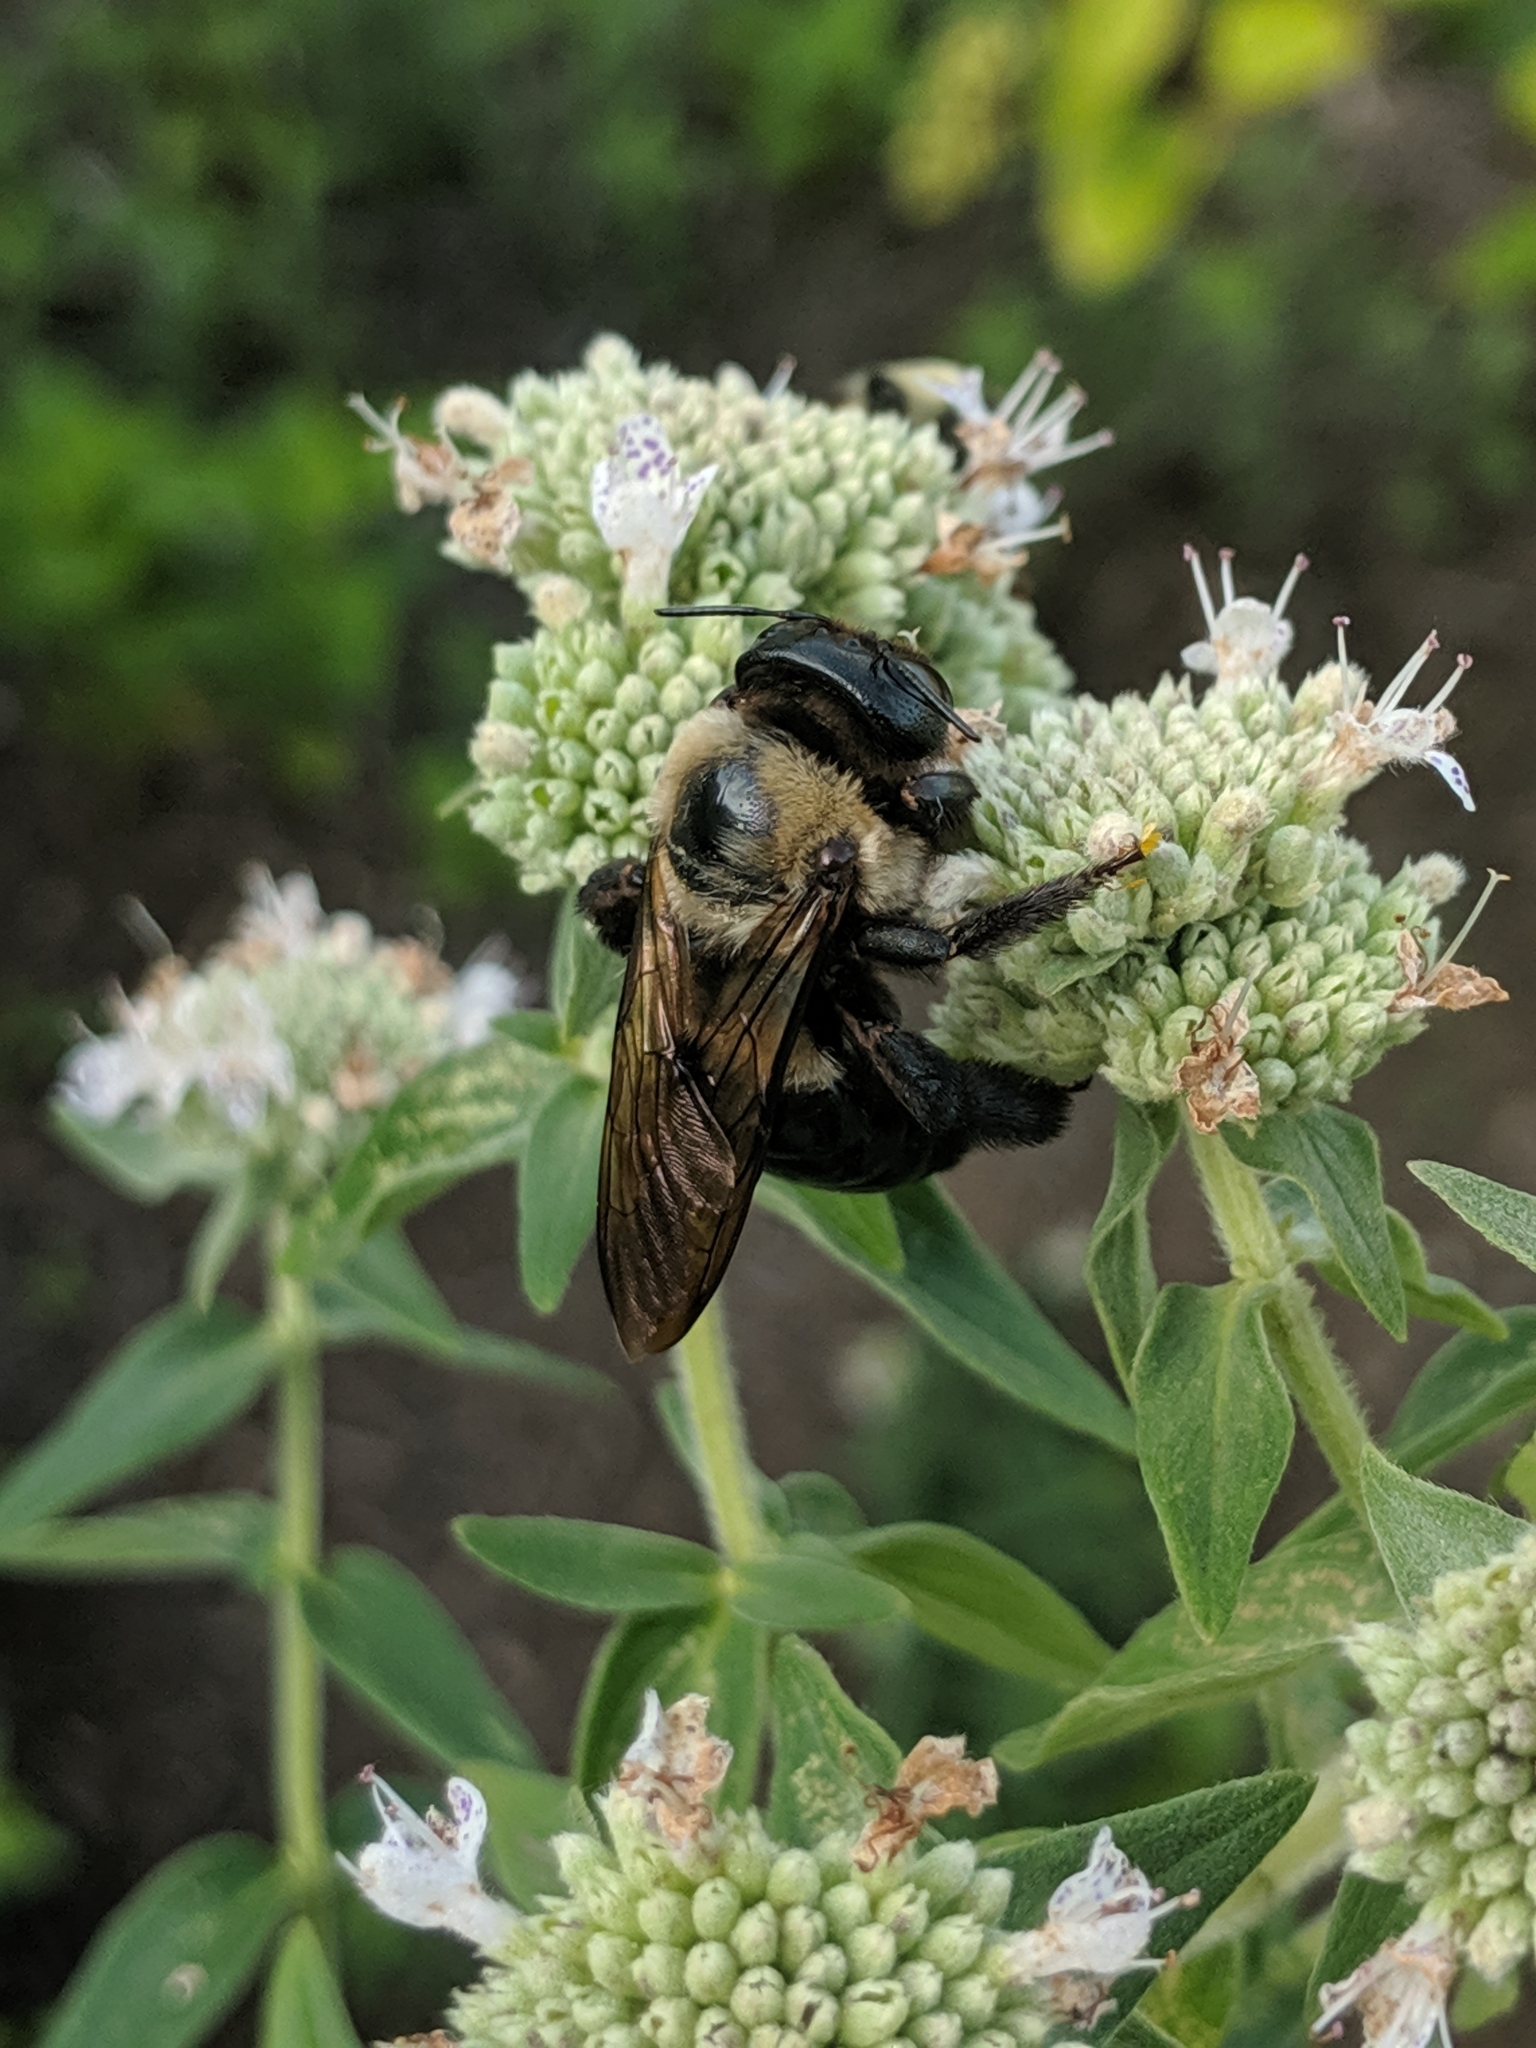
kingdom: Animalia
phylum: Arthropoda
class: Insecta
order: Hymenoptera
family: Apidae
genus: Xylocopa
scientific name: Xylocopa virginica
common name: Carpenter bee
